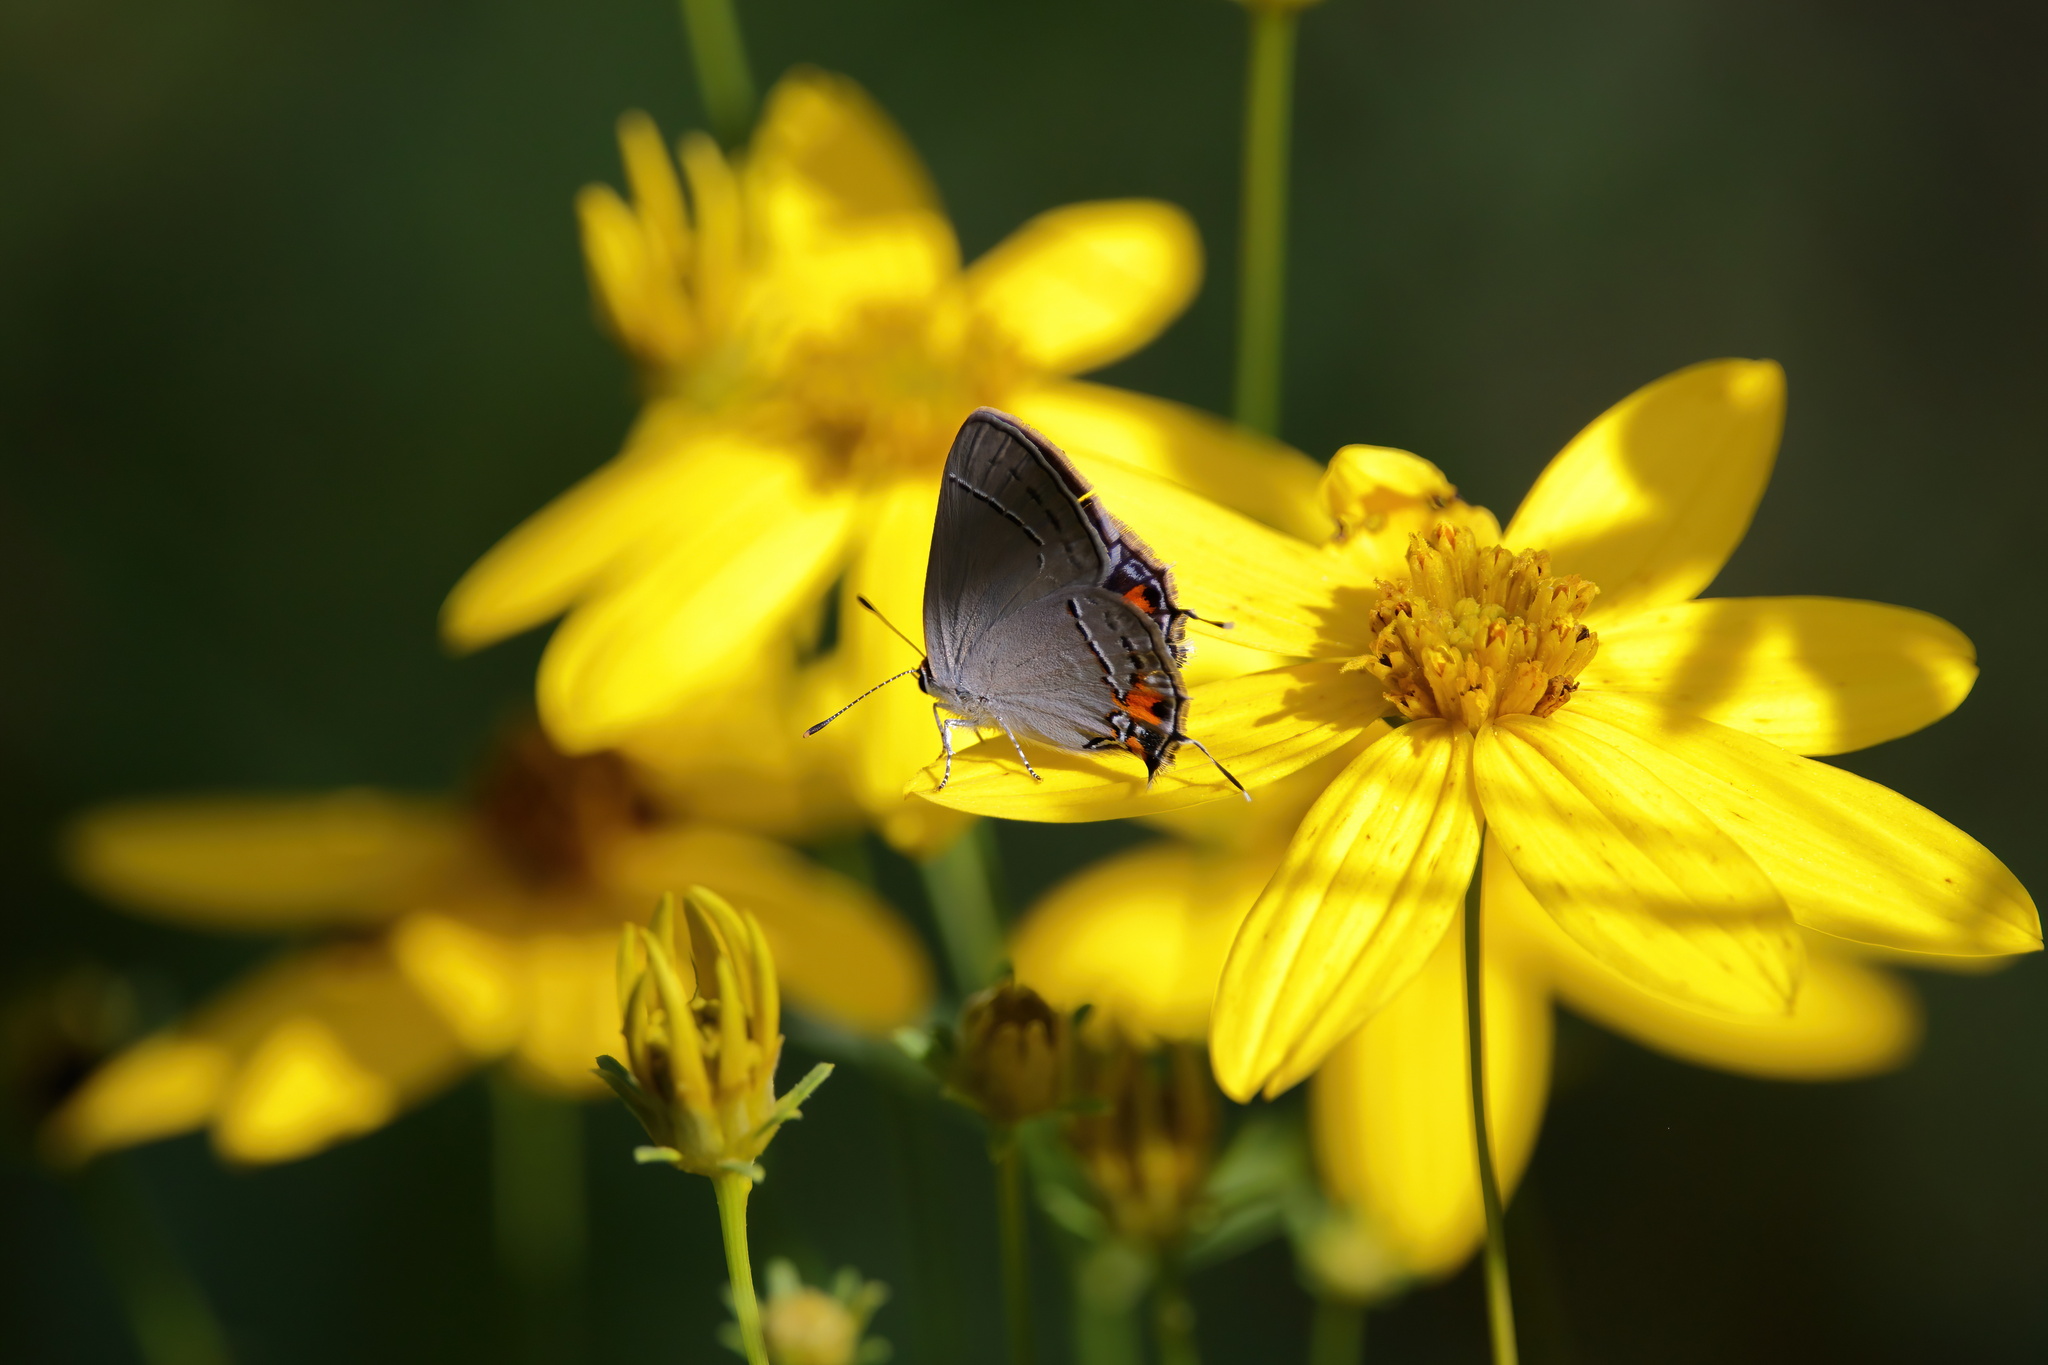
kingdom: Animalia
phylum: Arthropoda
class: Insecta
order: Lepidoptera
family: Lycaenidae
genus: Strymon
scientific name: Strymon melinus
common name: Gray hairstreak
